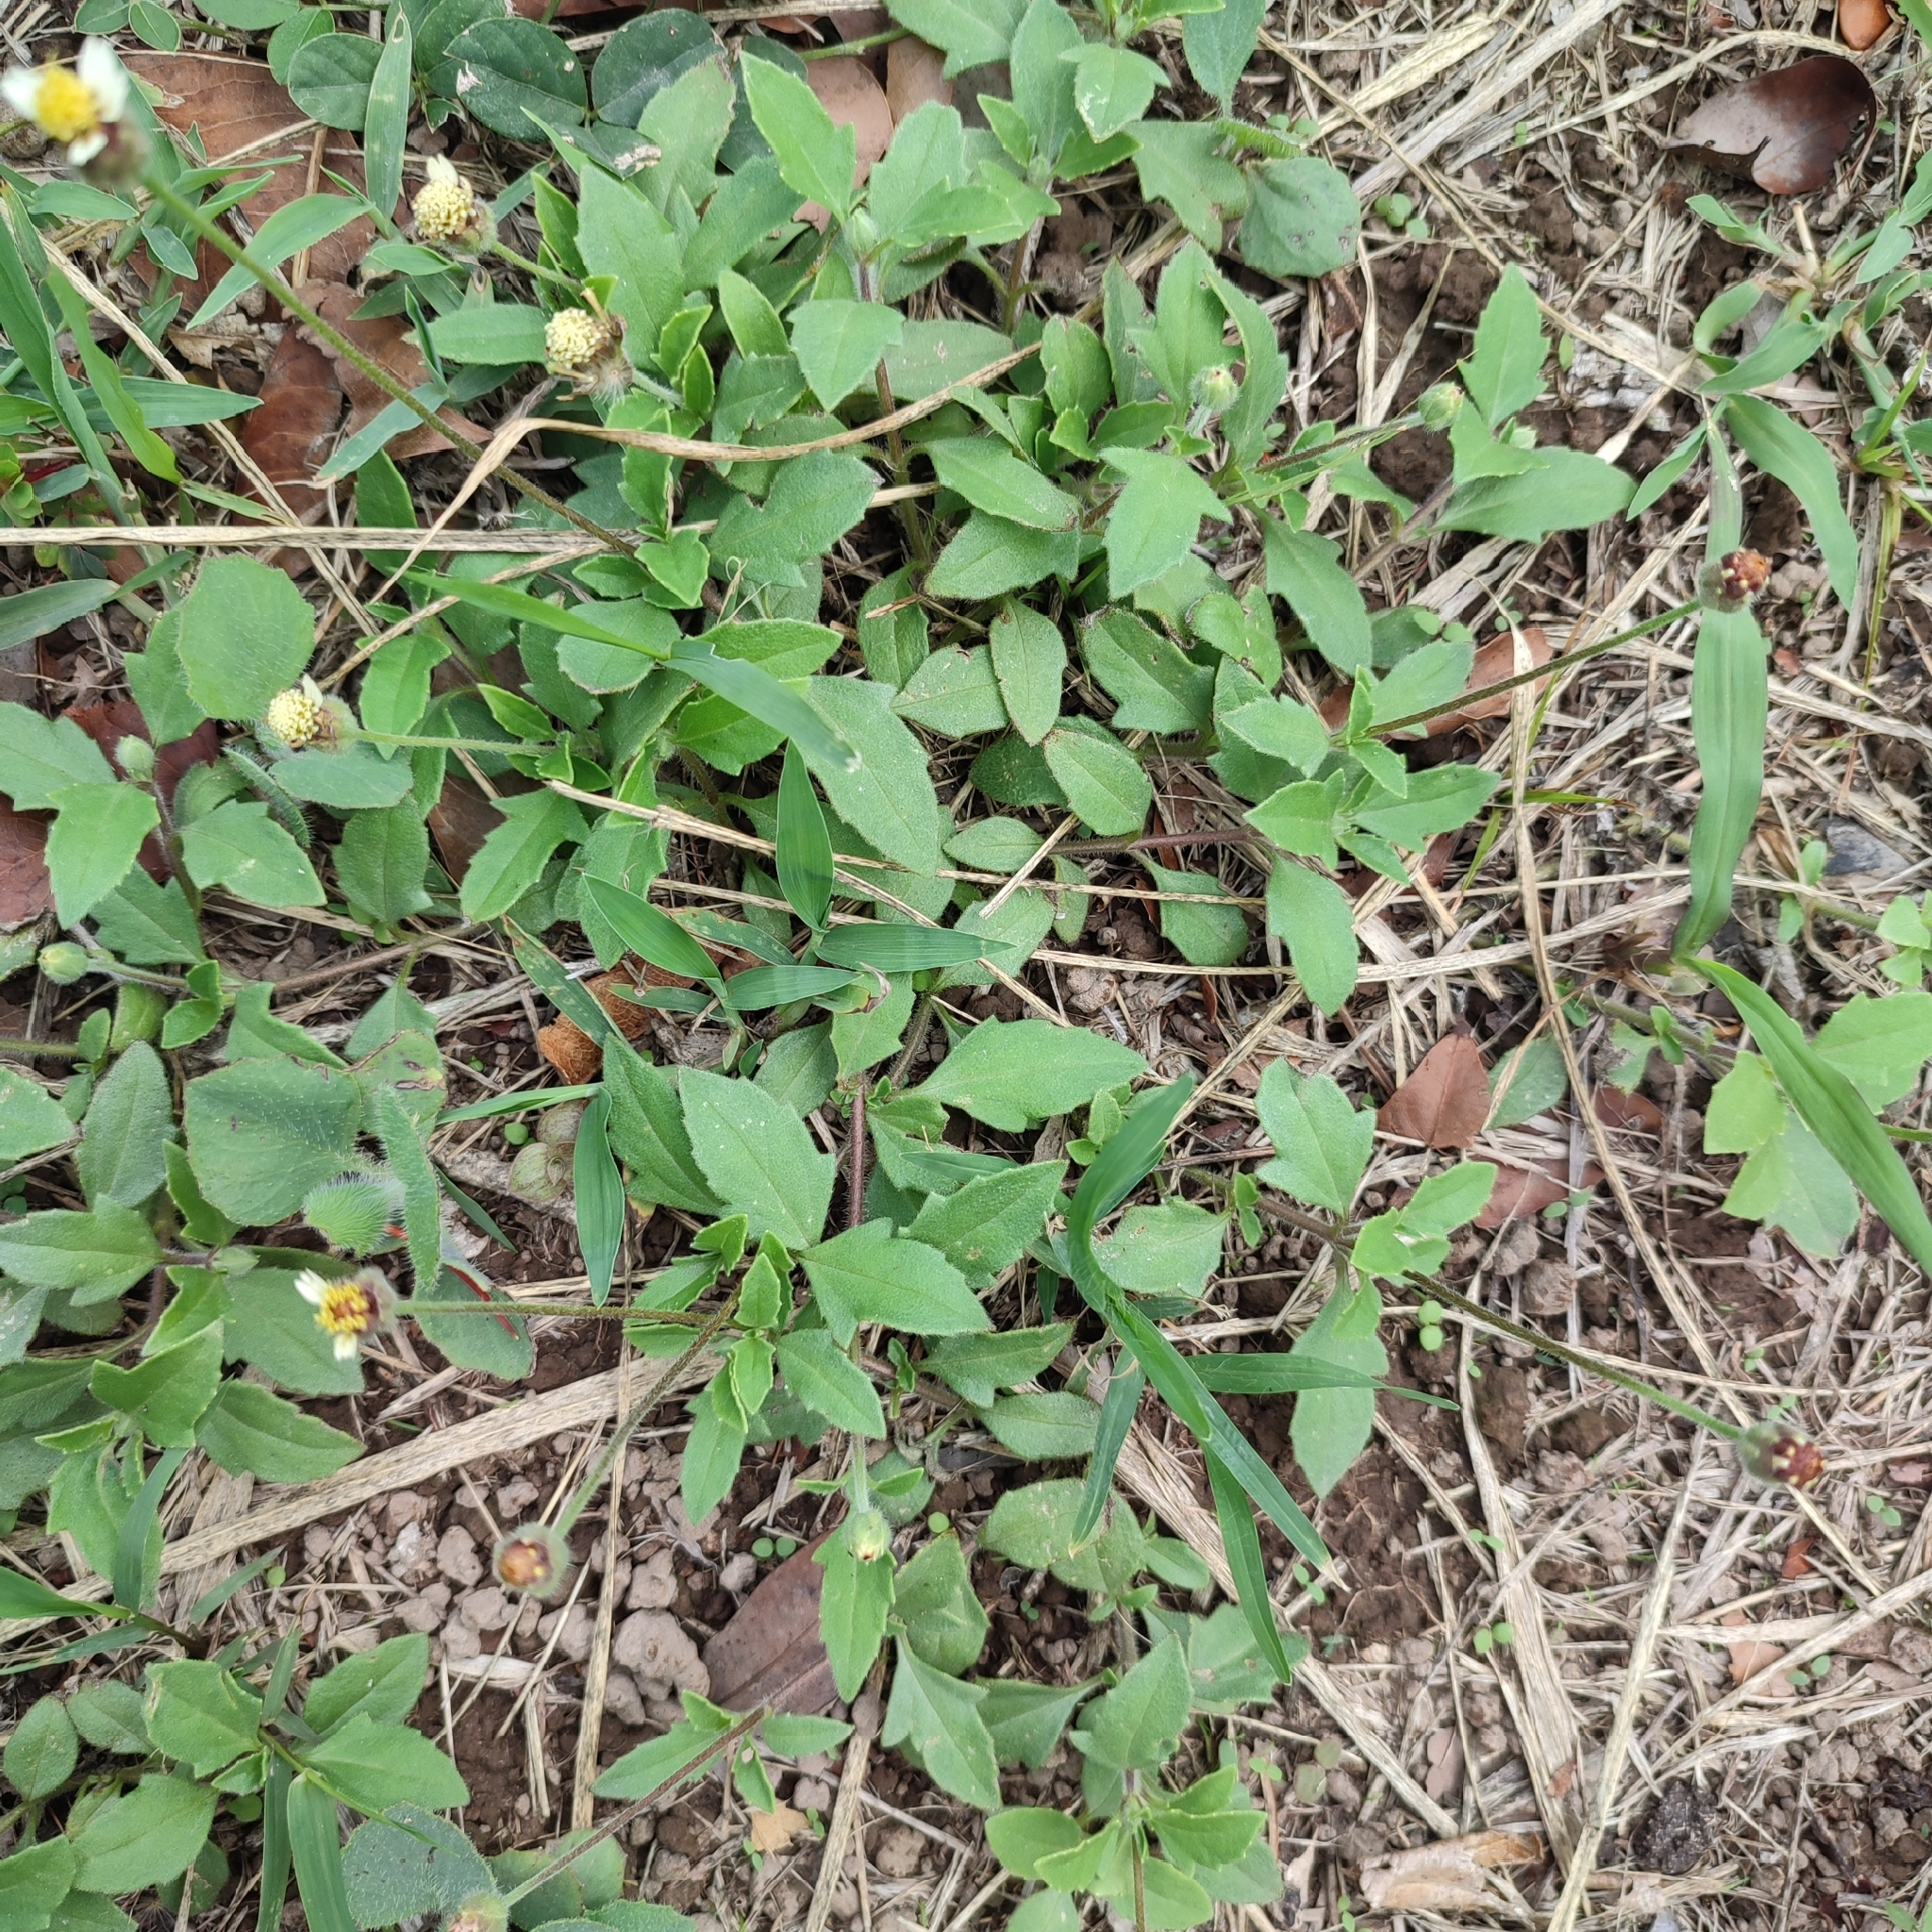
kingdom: Plantae
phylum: Tracheophyta
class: Magnoliopsida
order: Asterales
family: Asteraceae
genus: Tridax
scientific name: Tridax procumbens
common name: Coatbuttons
